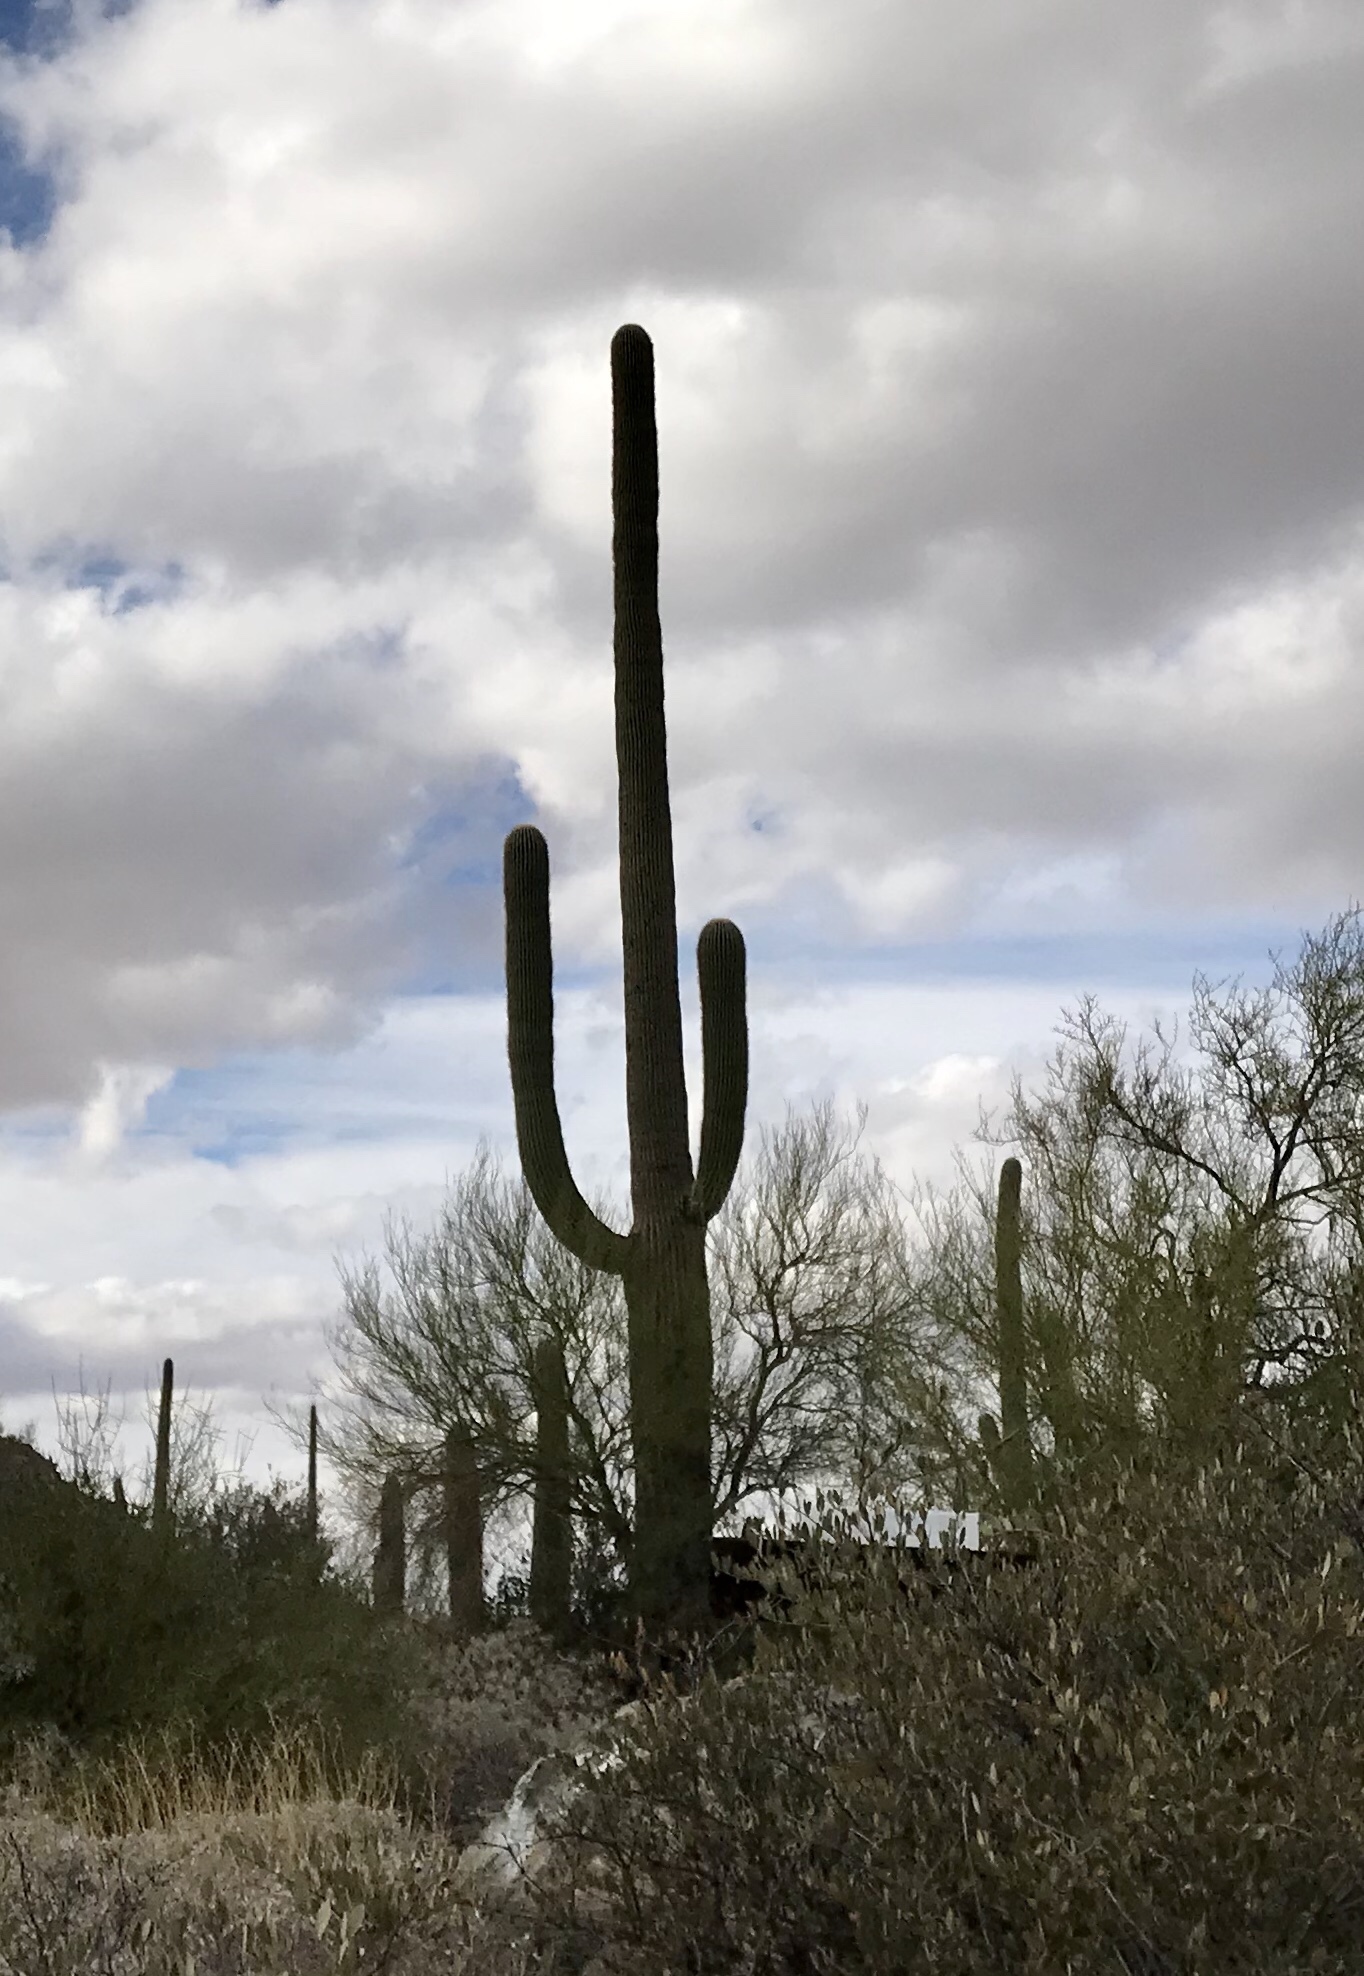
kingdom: Plantae
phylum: Tracheophyta
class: Magnoliopsida
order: Caryophyllales
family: Cactaceae
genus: Carnegiea
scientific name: Carnegiea gigantea
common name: Saguaro
